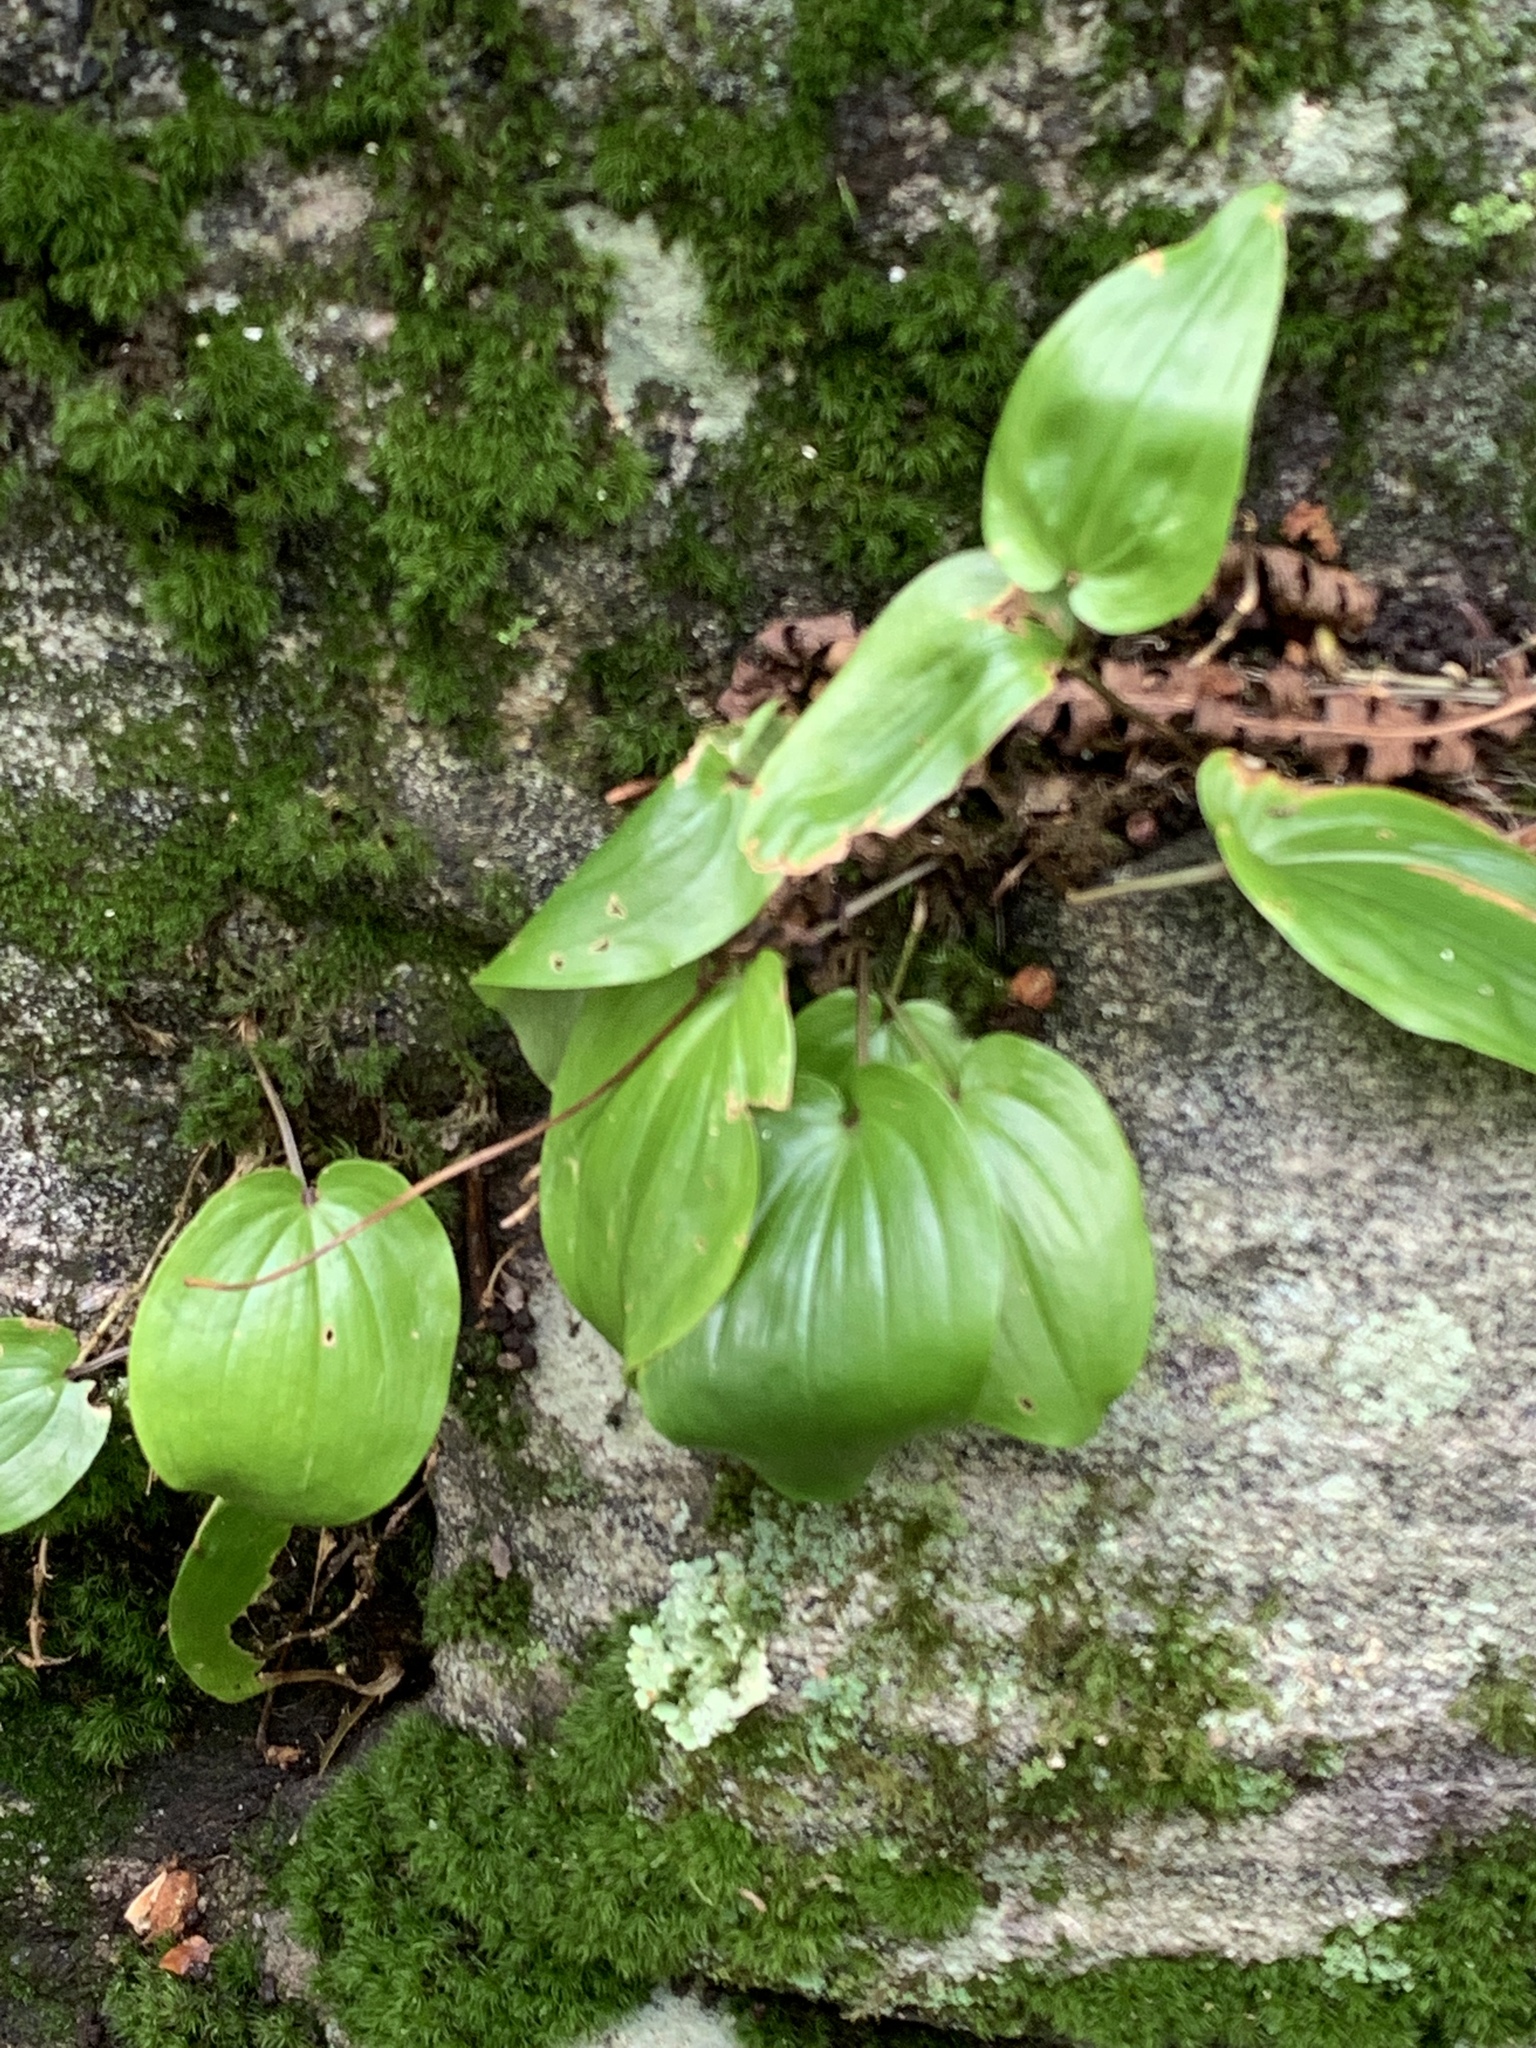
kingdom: Plantae
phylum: Tracheophyta
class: Liliopsida
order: Asparagales
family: Asparagaceae
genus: Maianthemum
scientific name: Maianthemum canadense
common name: False lily-of-the-valley
